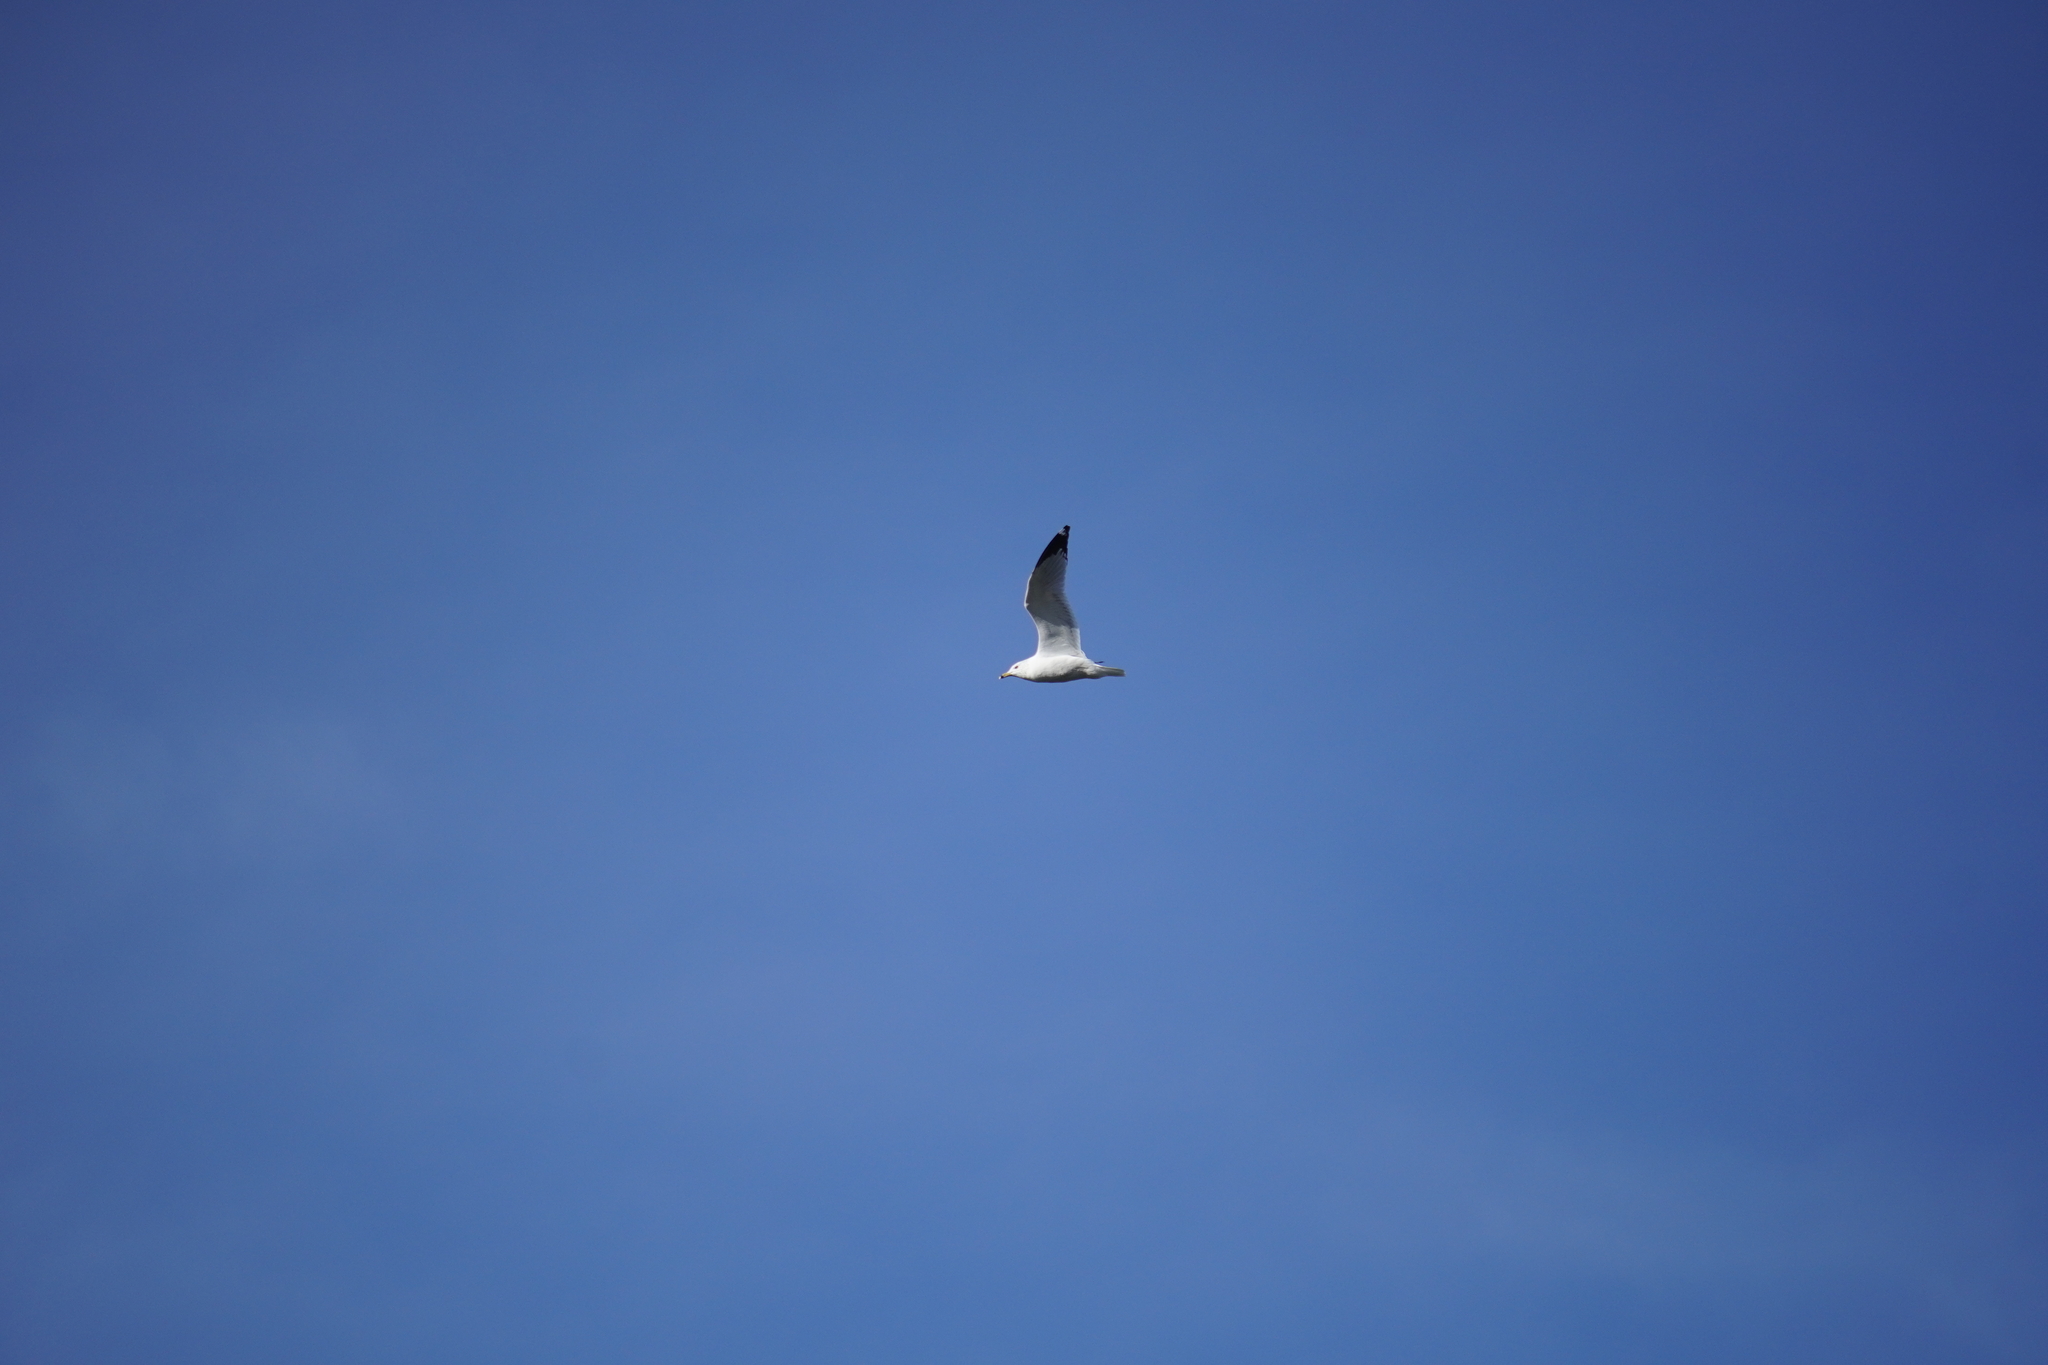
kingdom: Animalia
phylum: Chordata
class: Aves
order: Charadriiformes
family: Laridae
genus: Larus
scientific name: Larus delawarensis
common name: Ring-billed gull
